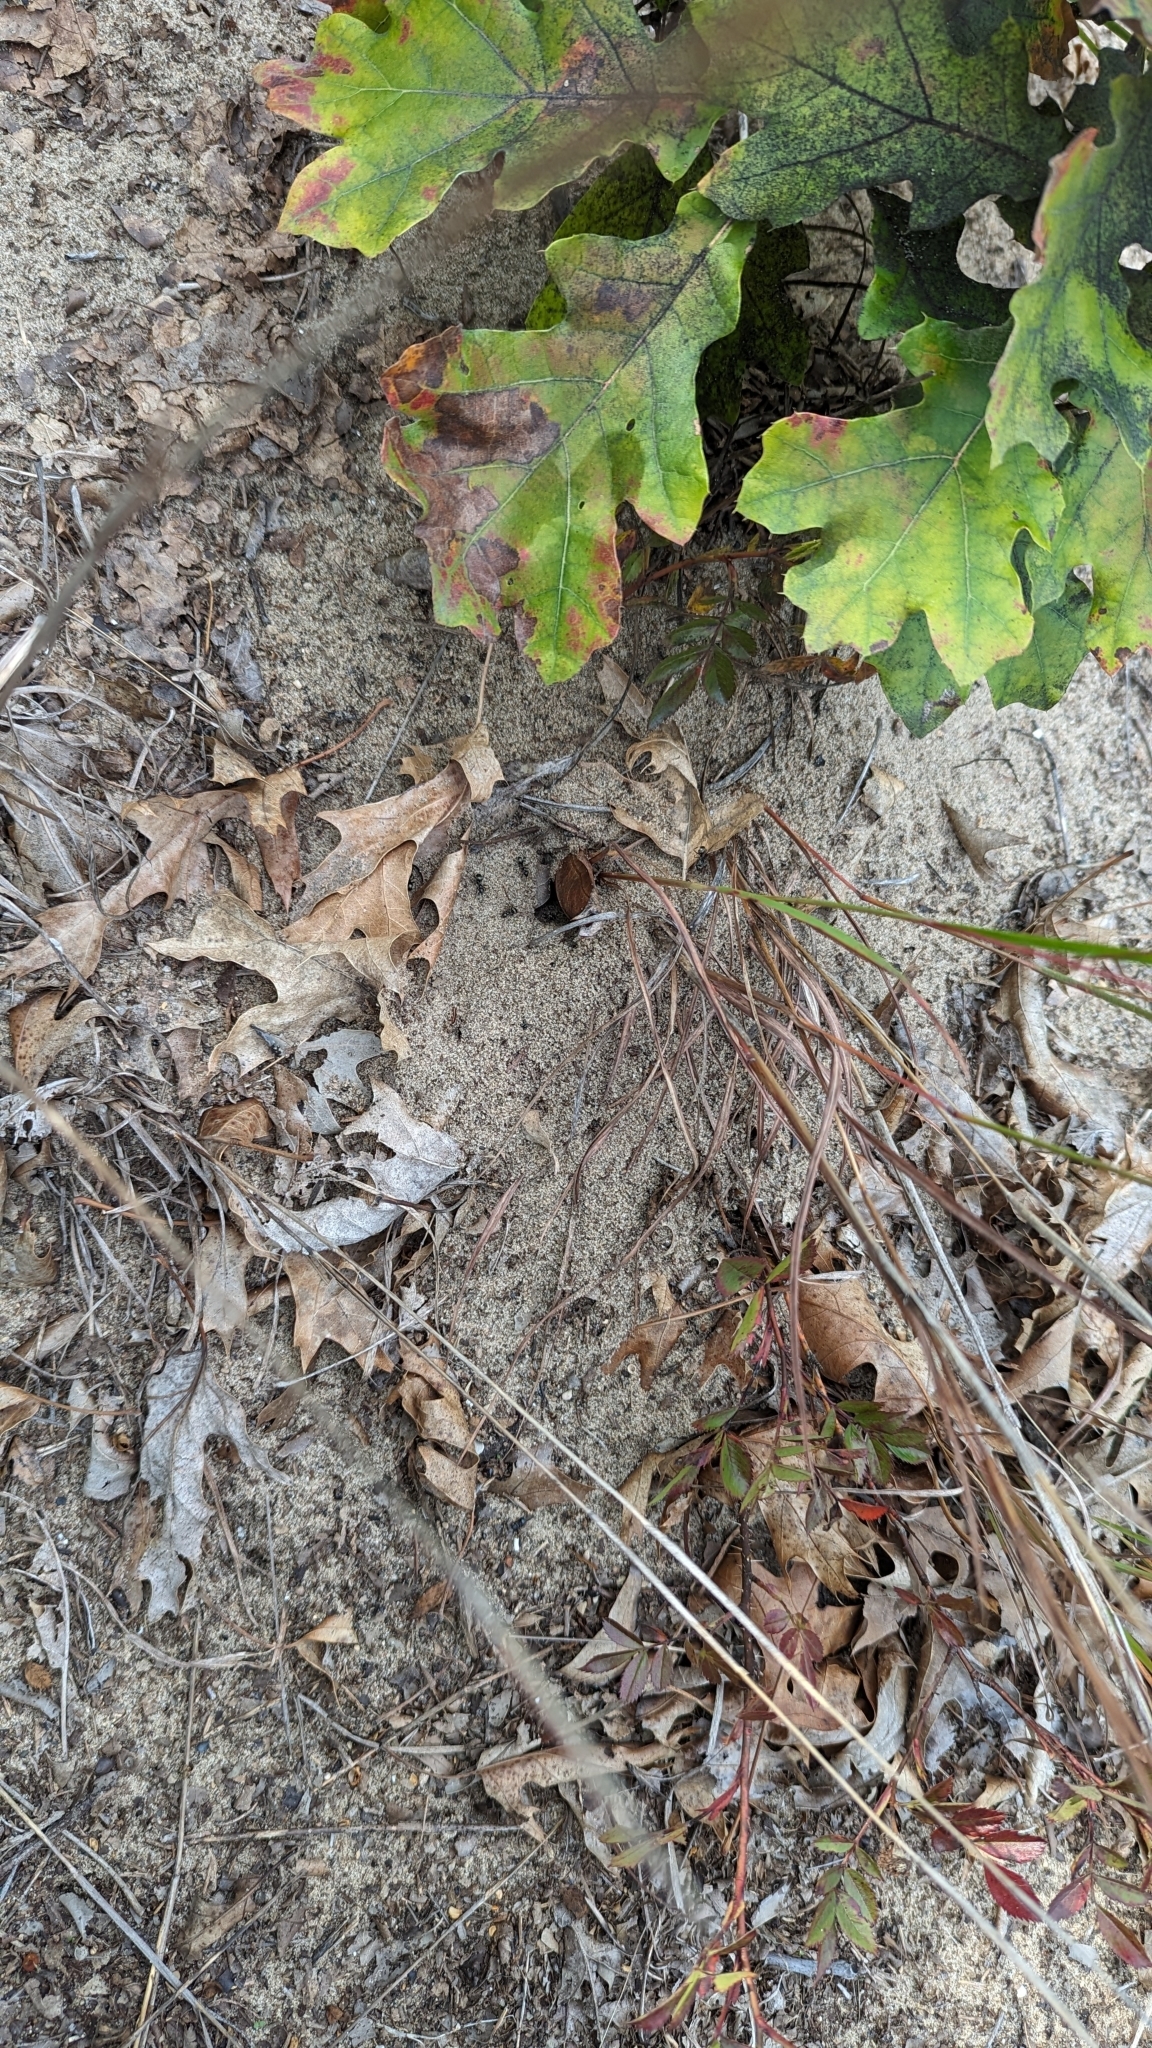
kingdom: Animalia
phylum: Arthropoda
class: Insecta
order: Hymenoptera
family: Formicidae
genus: Formica
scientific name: Formica subsericea
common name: Silky field ant
